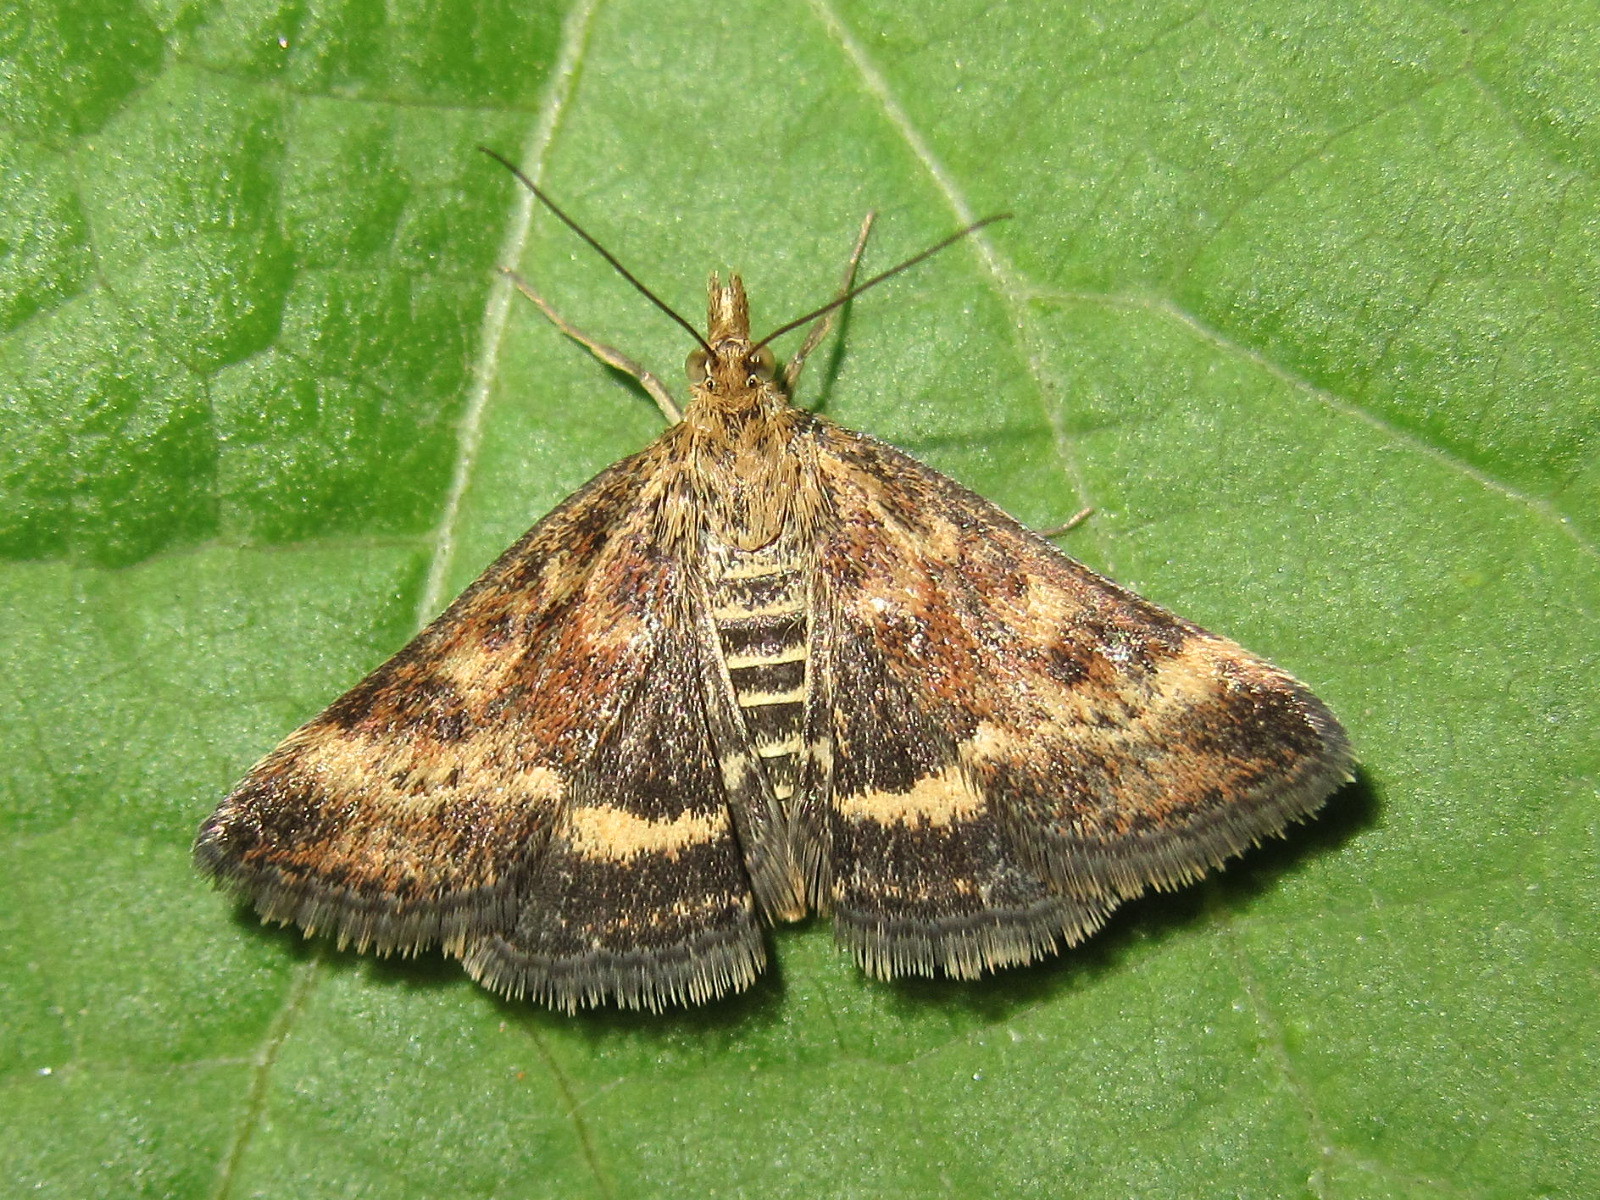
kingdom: Animalia
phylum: Arthropoda
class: Insecta
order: Lepidoptera
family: Crambidae
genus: Pyrausta
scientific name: Pyrausta despicata
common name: Straw-barred pearl
